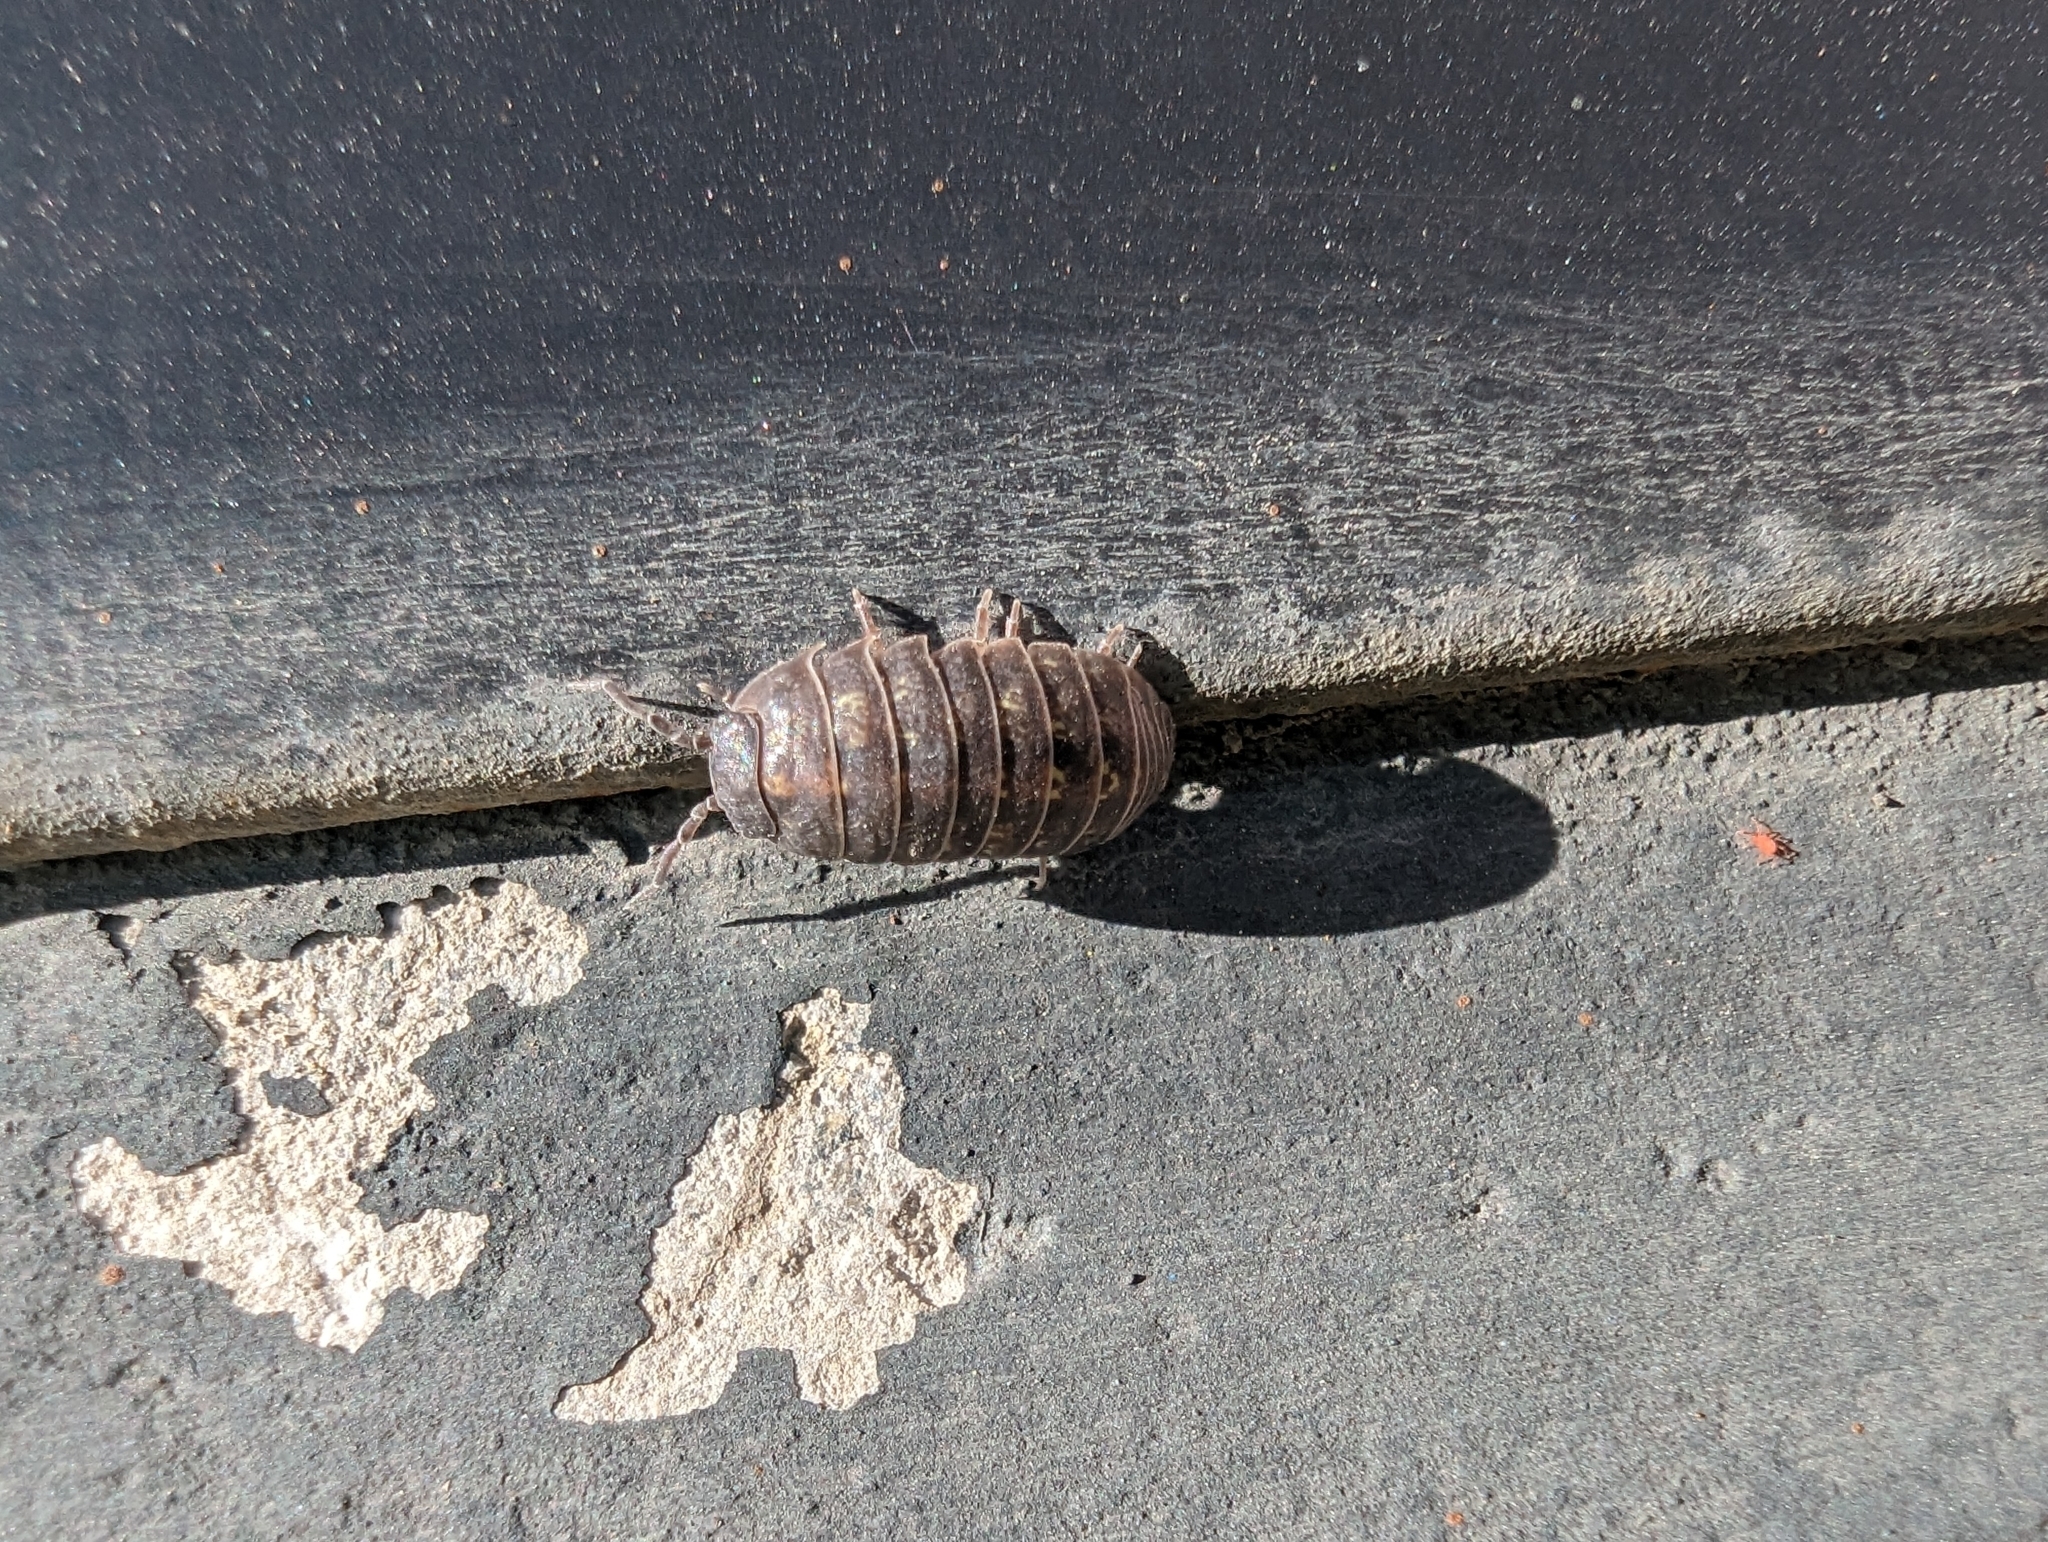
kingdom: Animalia
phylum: Arthropoda
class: Malacostraca
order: Isopoda
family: Armadillidiidae
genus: Armadillidium
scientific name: Armadillidium vulgare
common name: Common pill woodlouse
